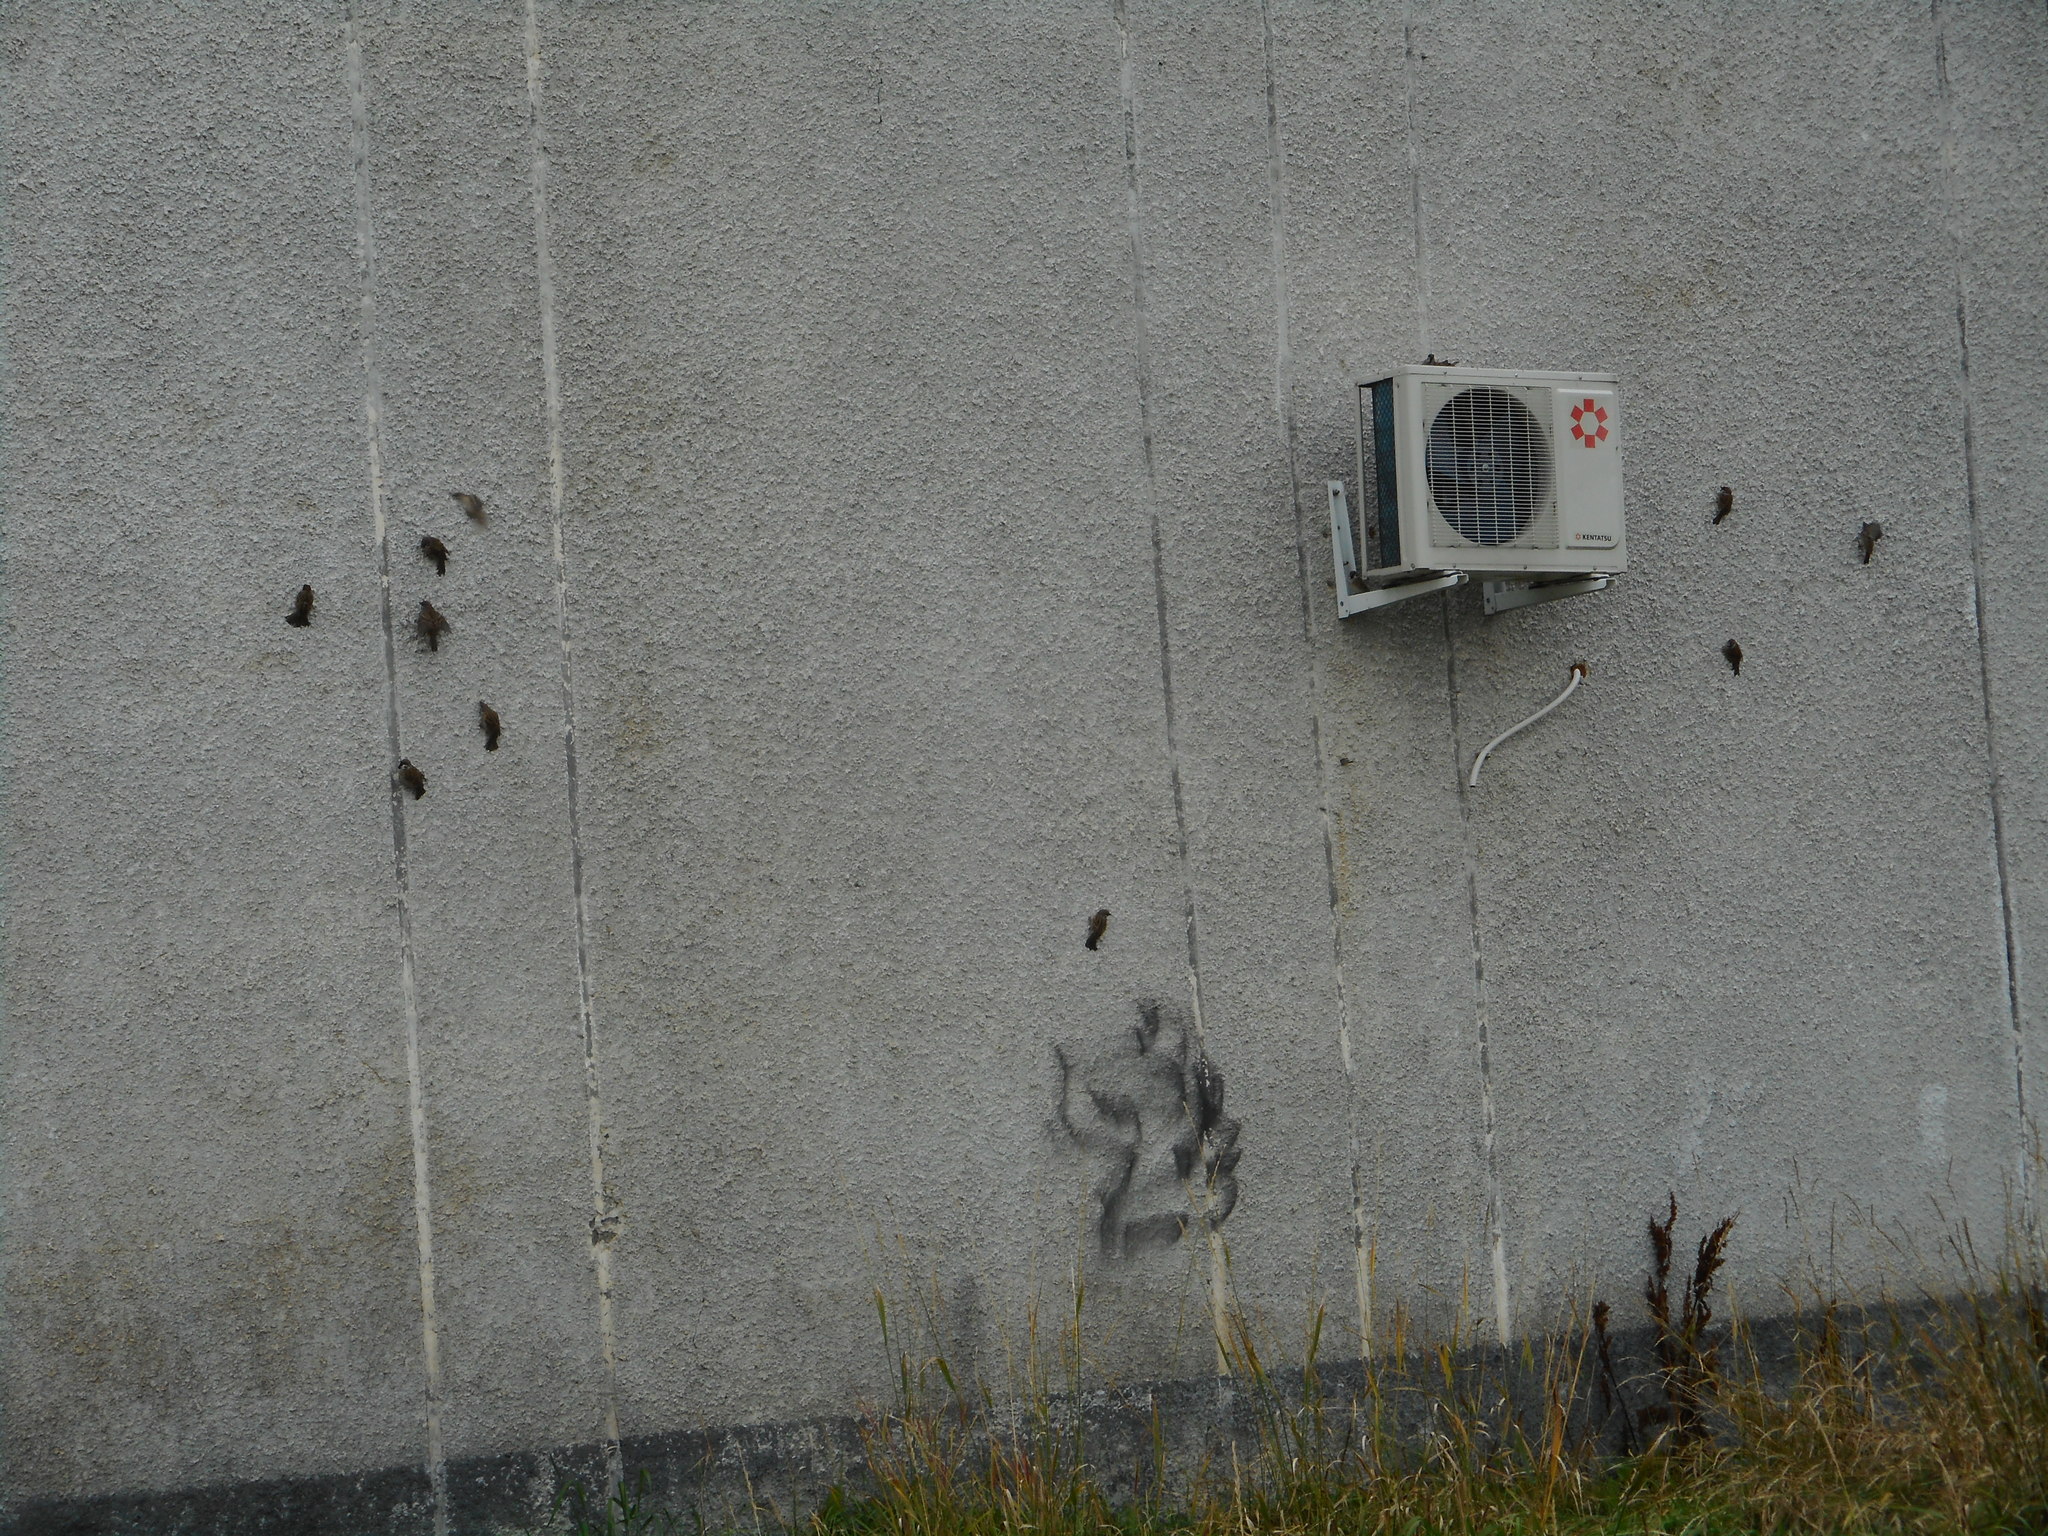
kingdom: Animalia
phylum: Chordata
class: Aves
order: Passeriformes
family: Passeridae
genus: Passer
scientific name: Passer montanus
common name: Eurasian tree sparrow
